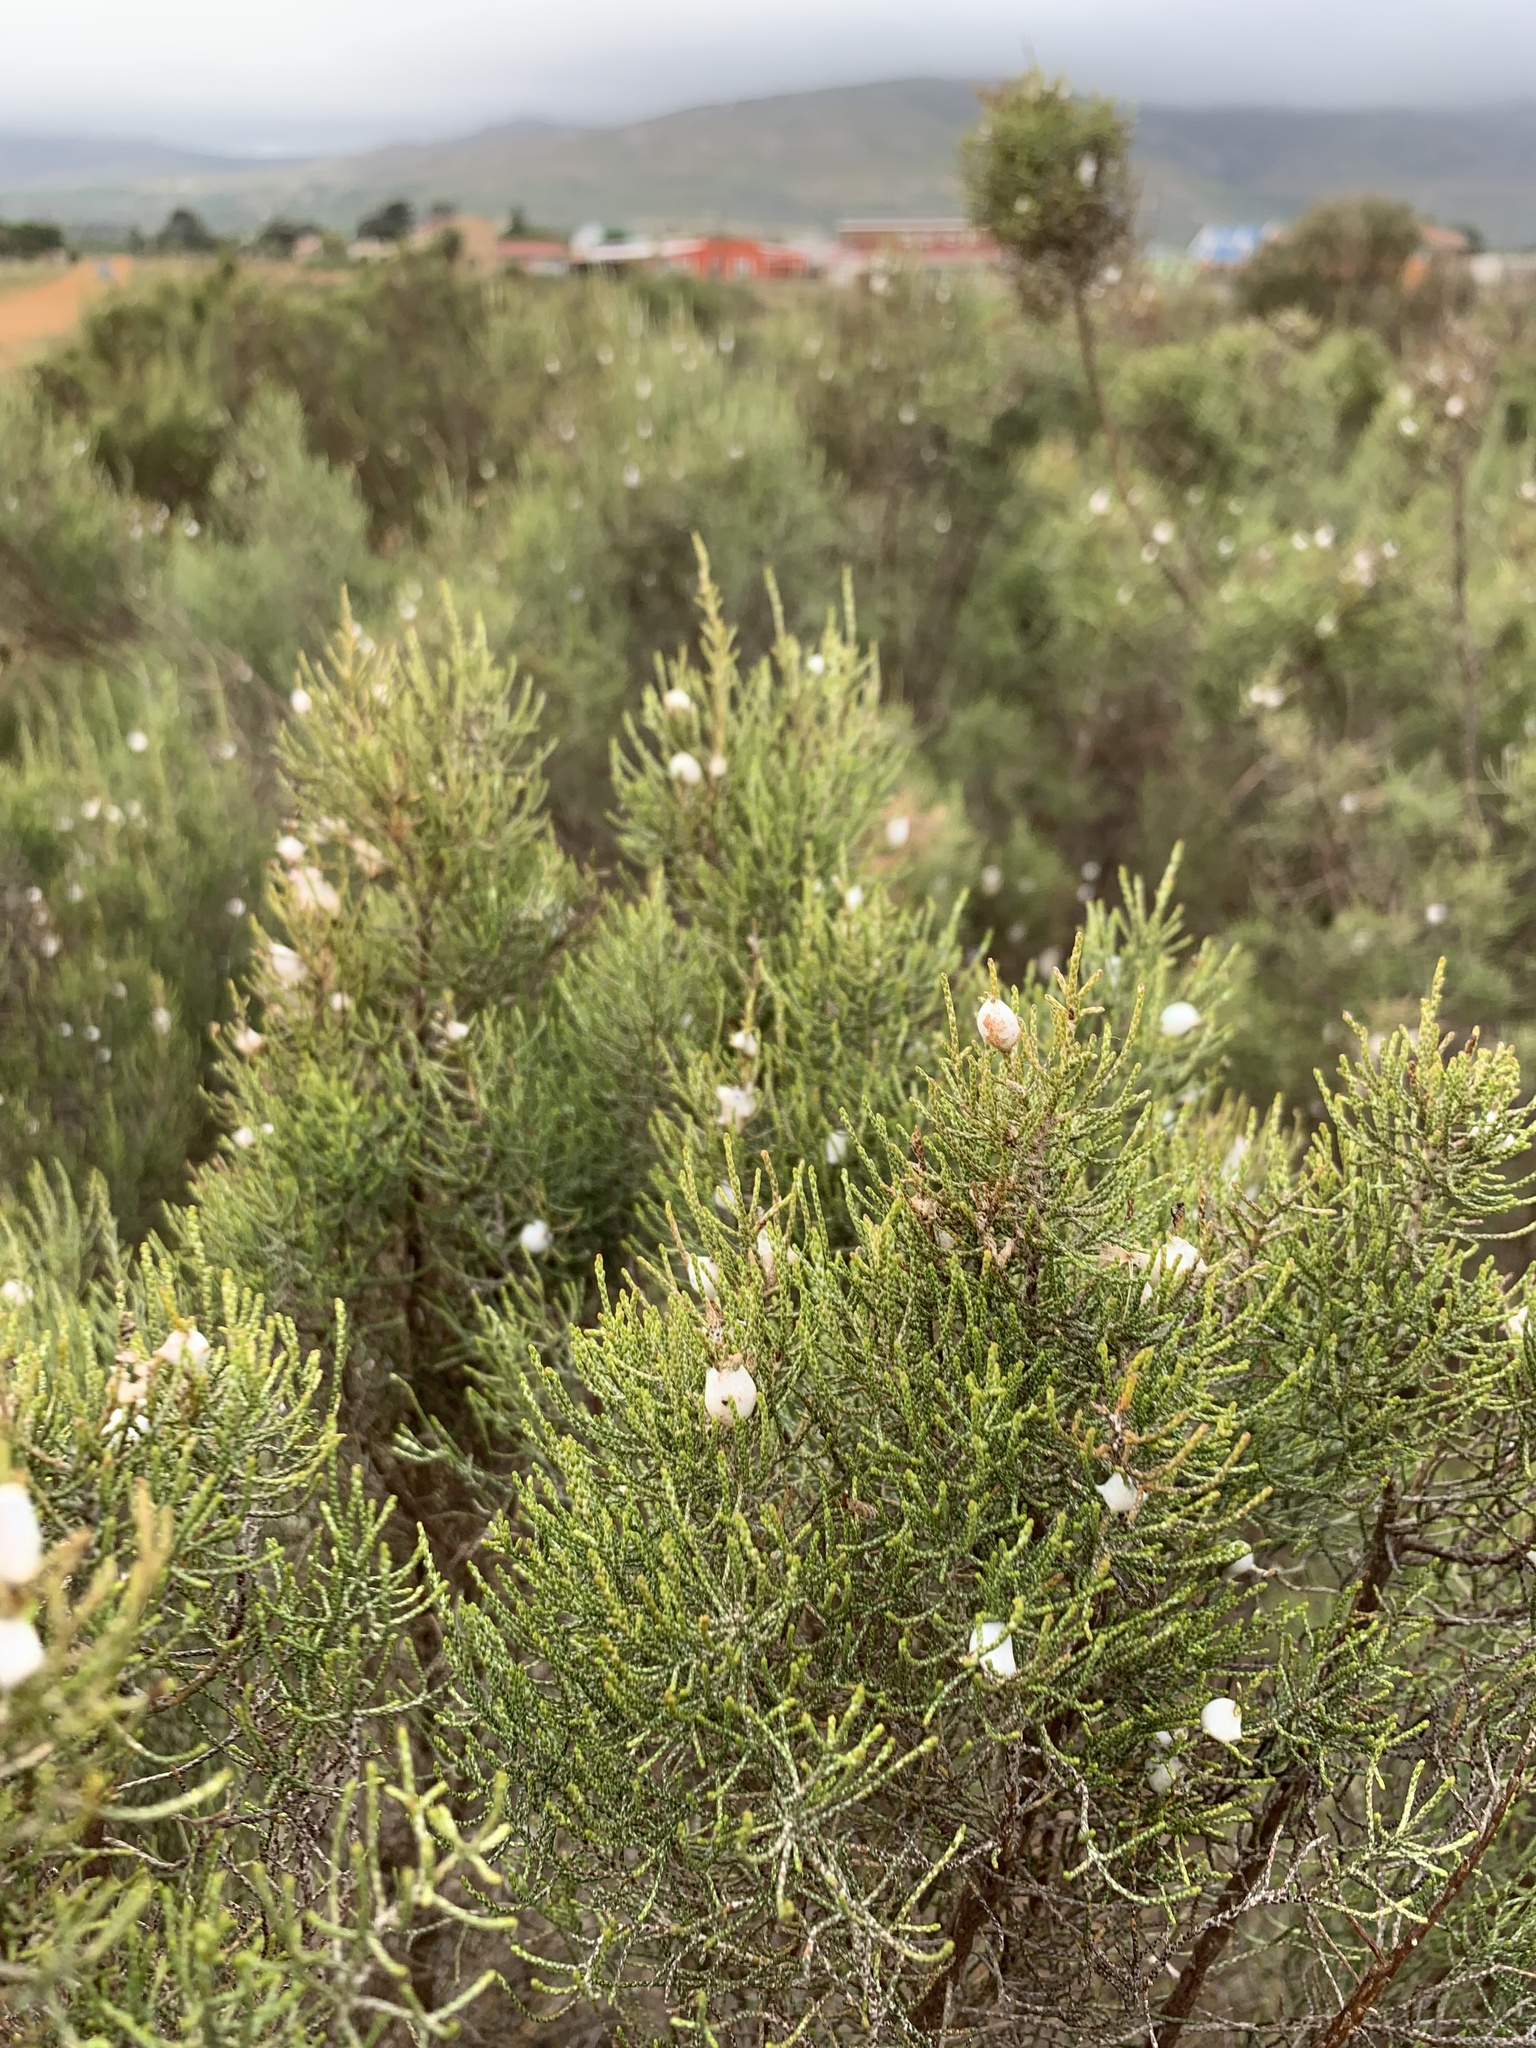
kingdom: Plantae
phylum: Tracheophyta
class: Magnoliopsida
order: Asterales
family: Asteraceae
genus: Dicerothamnus
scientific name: Dicerothamnus rhinocerotis
